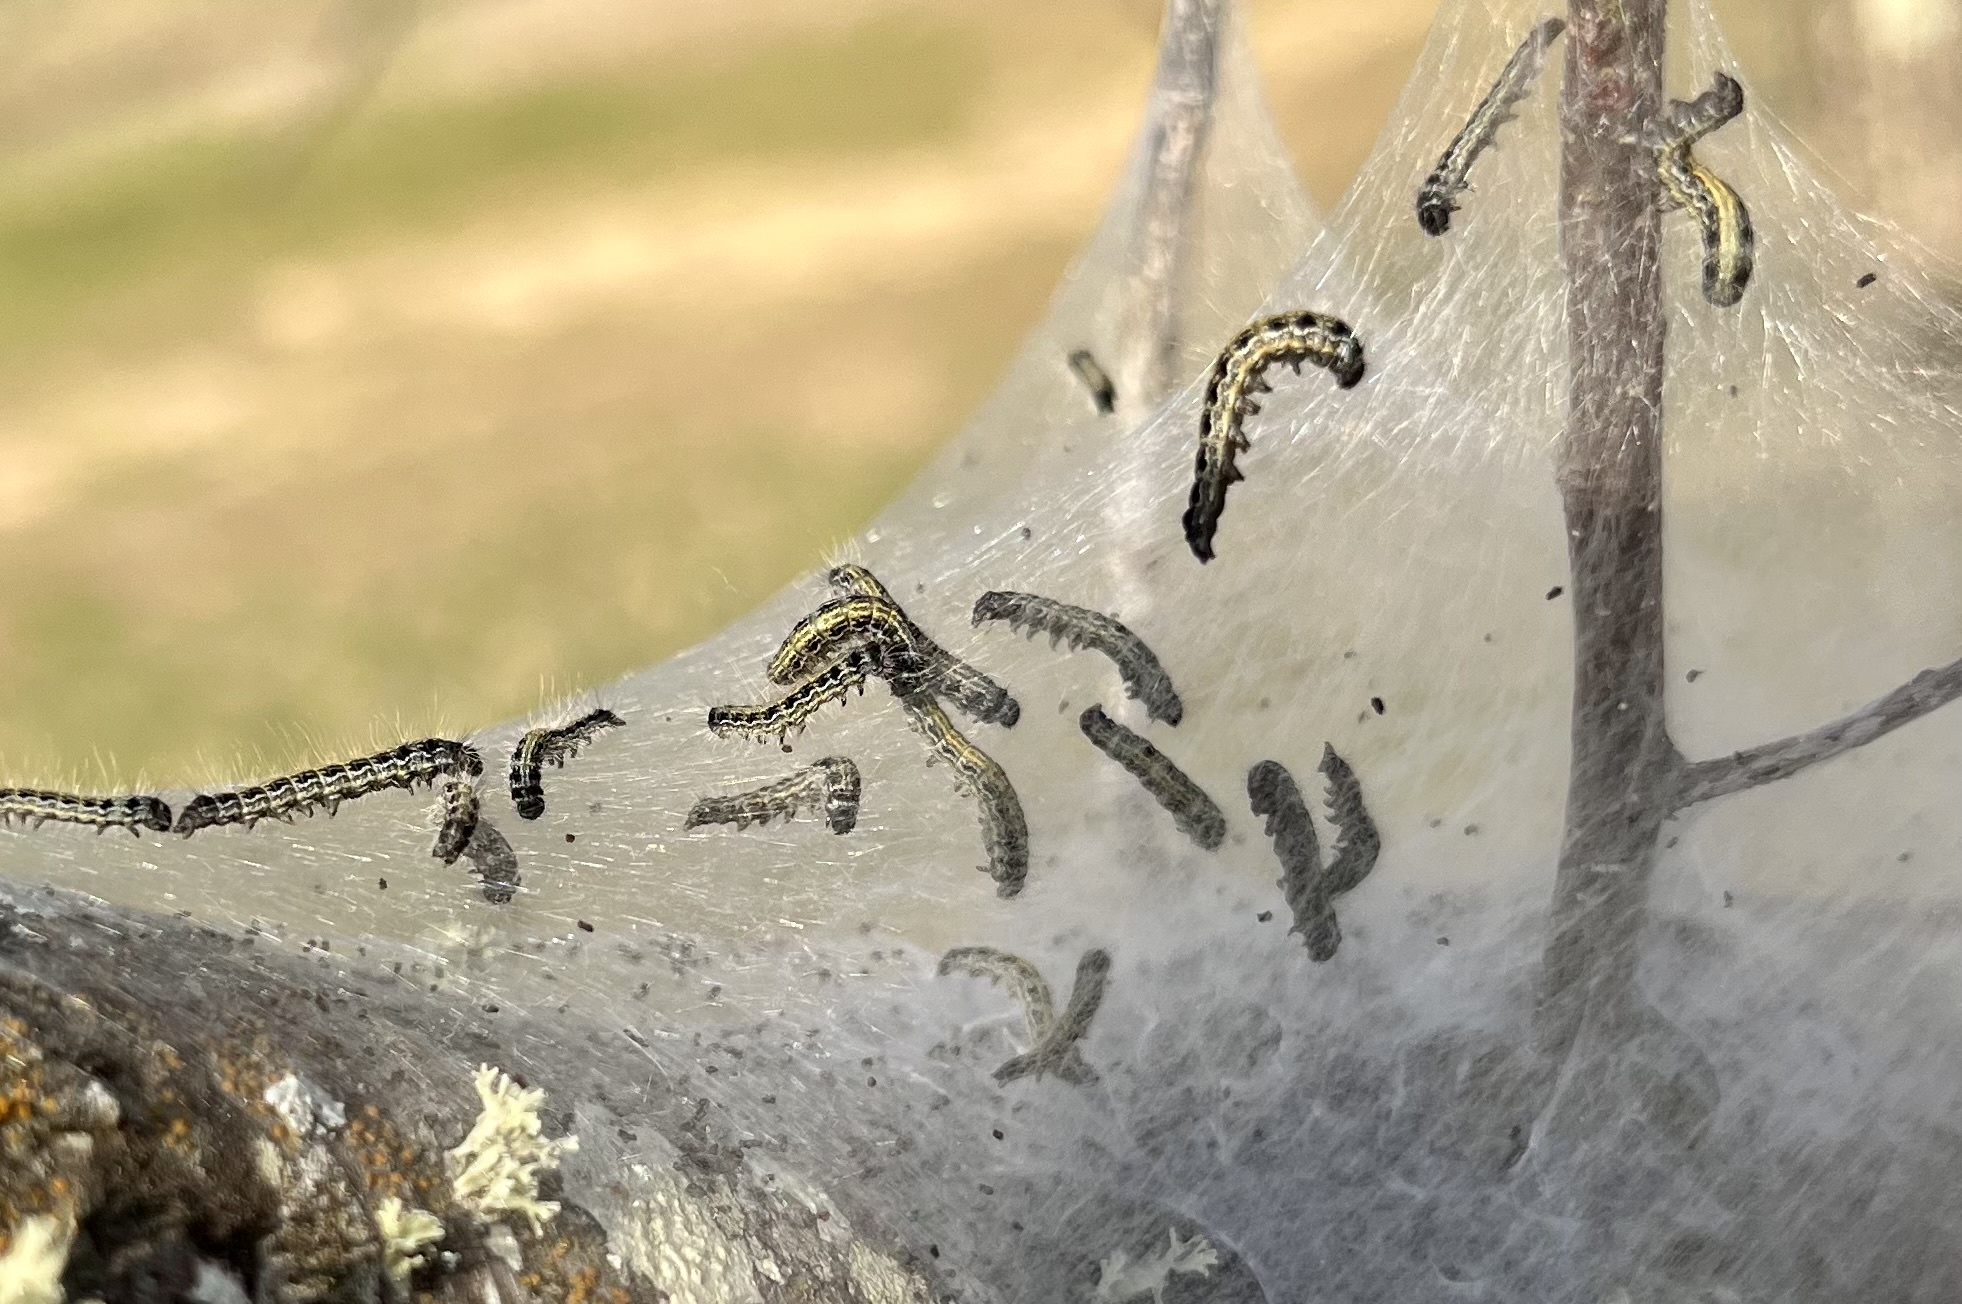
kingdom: Animalia
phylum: Arthropoda
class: Insecta
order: Lepidoptera
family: Lasiocampidae
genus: Malacosoma
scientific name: Malacosoma americana
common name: Eastern tent caterpillar moth
